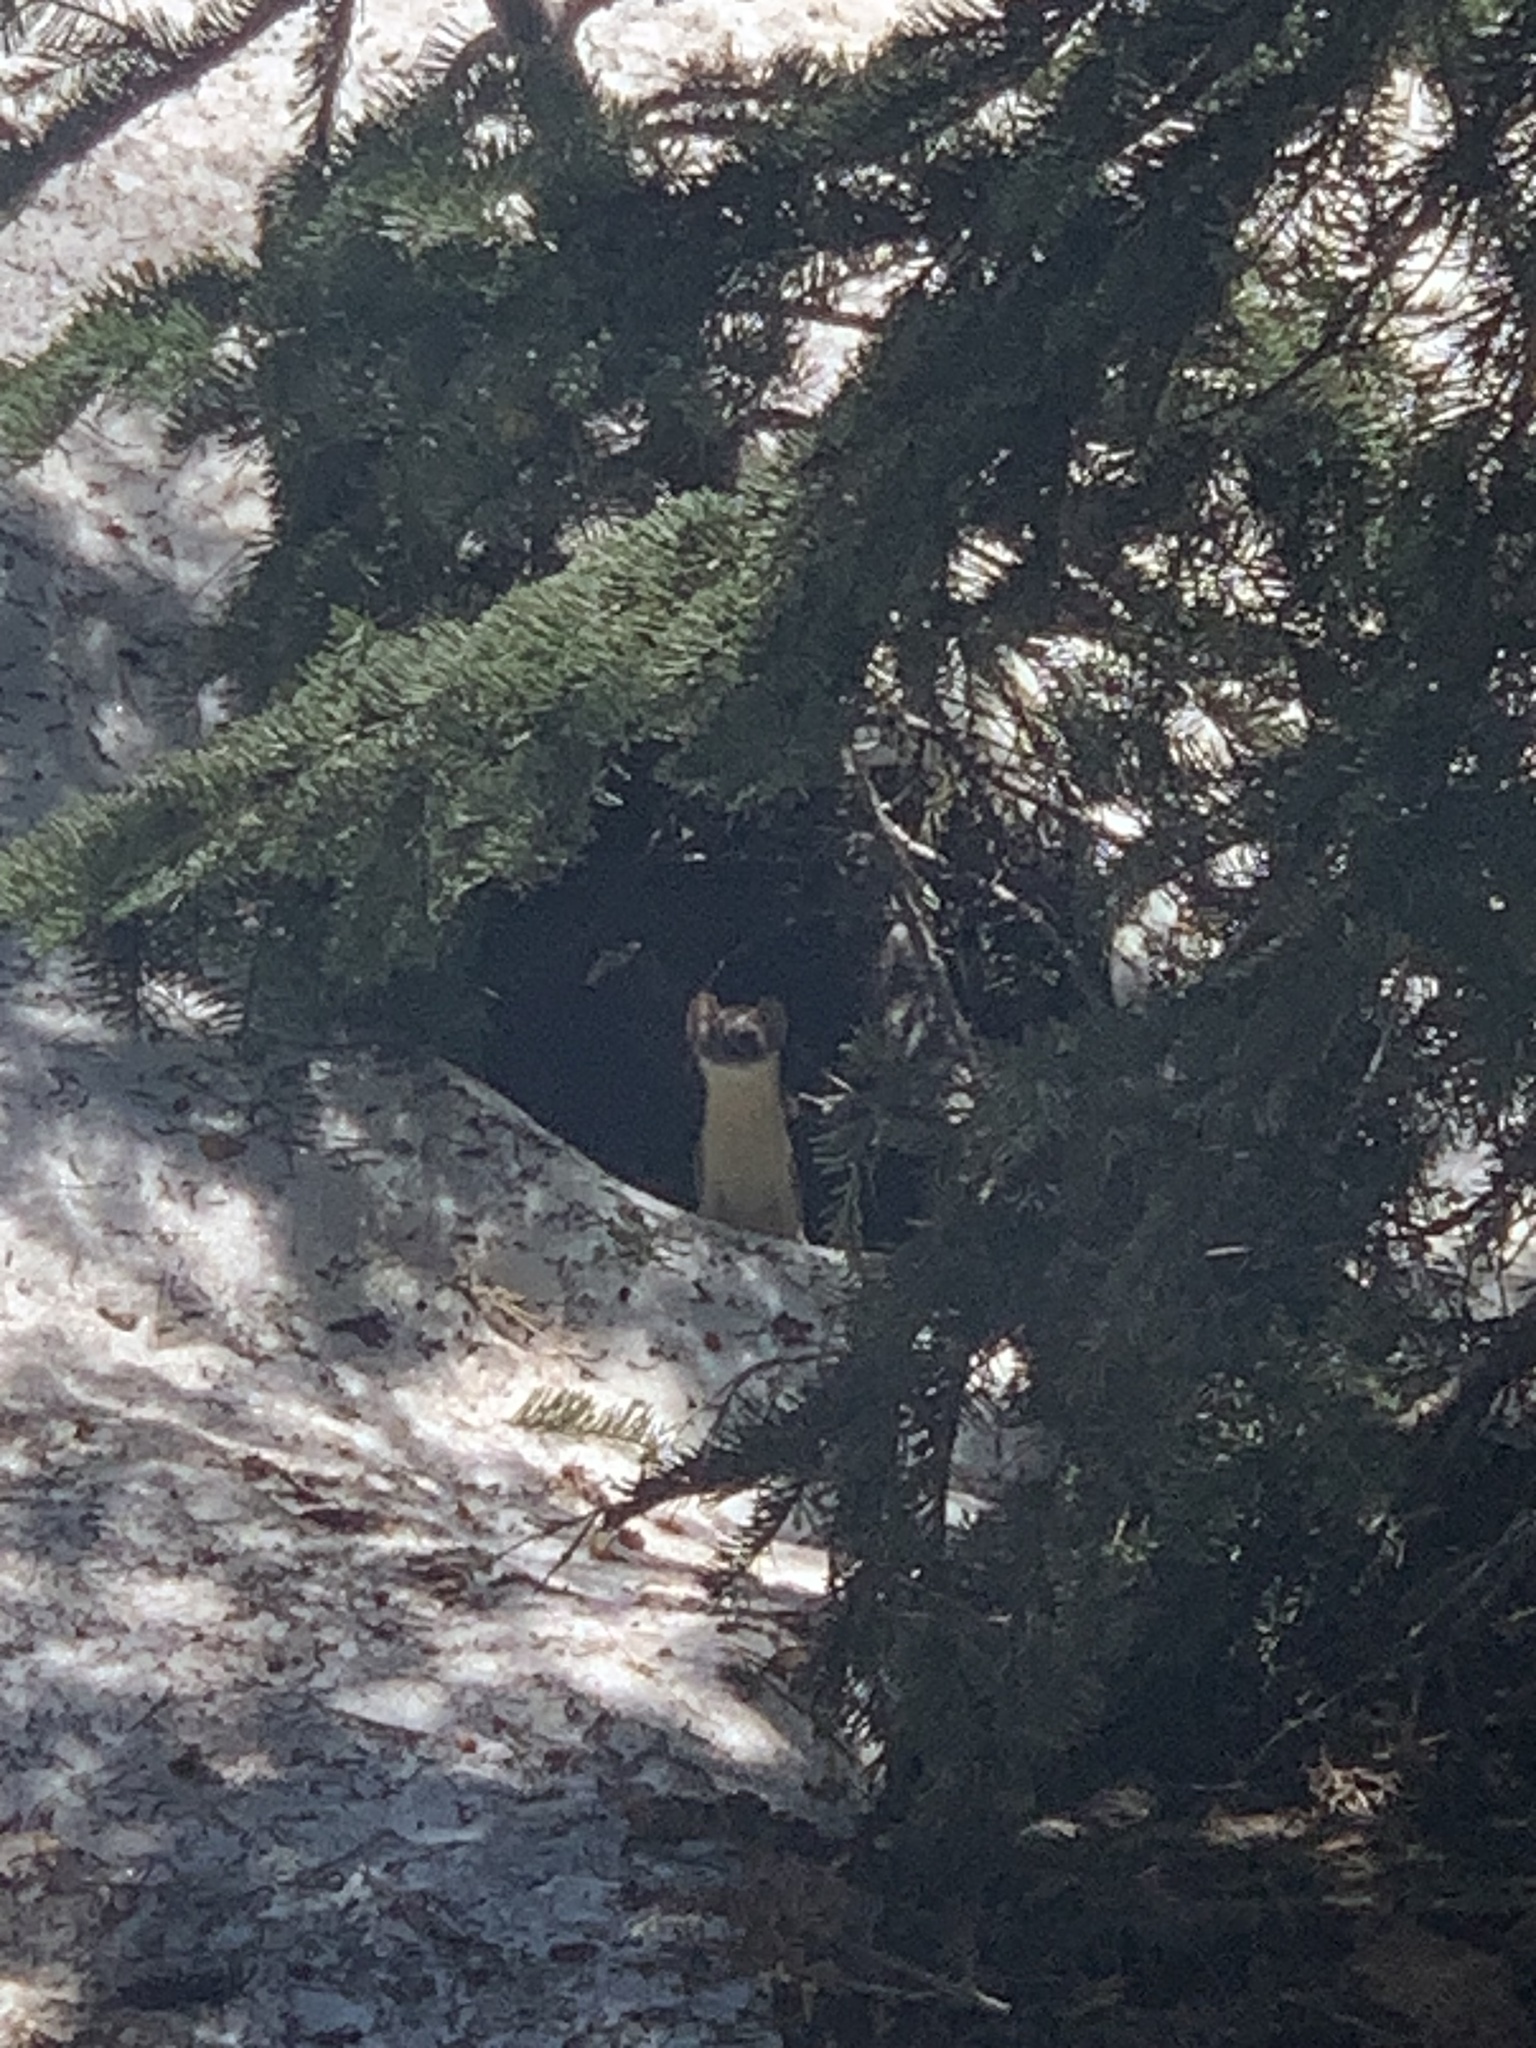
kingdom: Animalia
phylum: Chordata
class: Mammalia
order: Carnivora
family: Mustelidae
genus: Mustela
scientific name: Mustela
